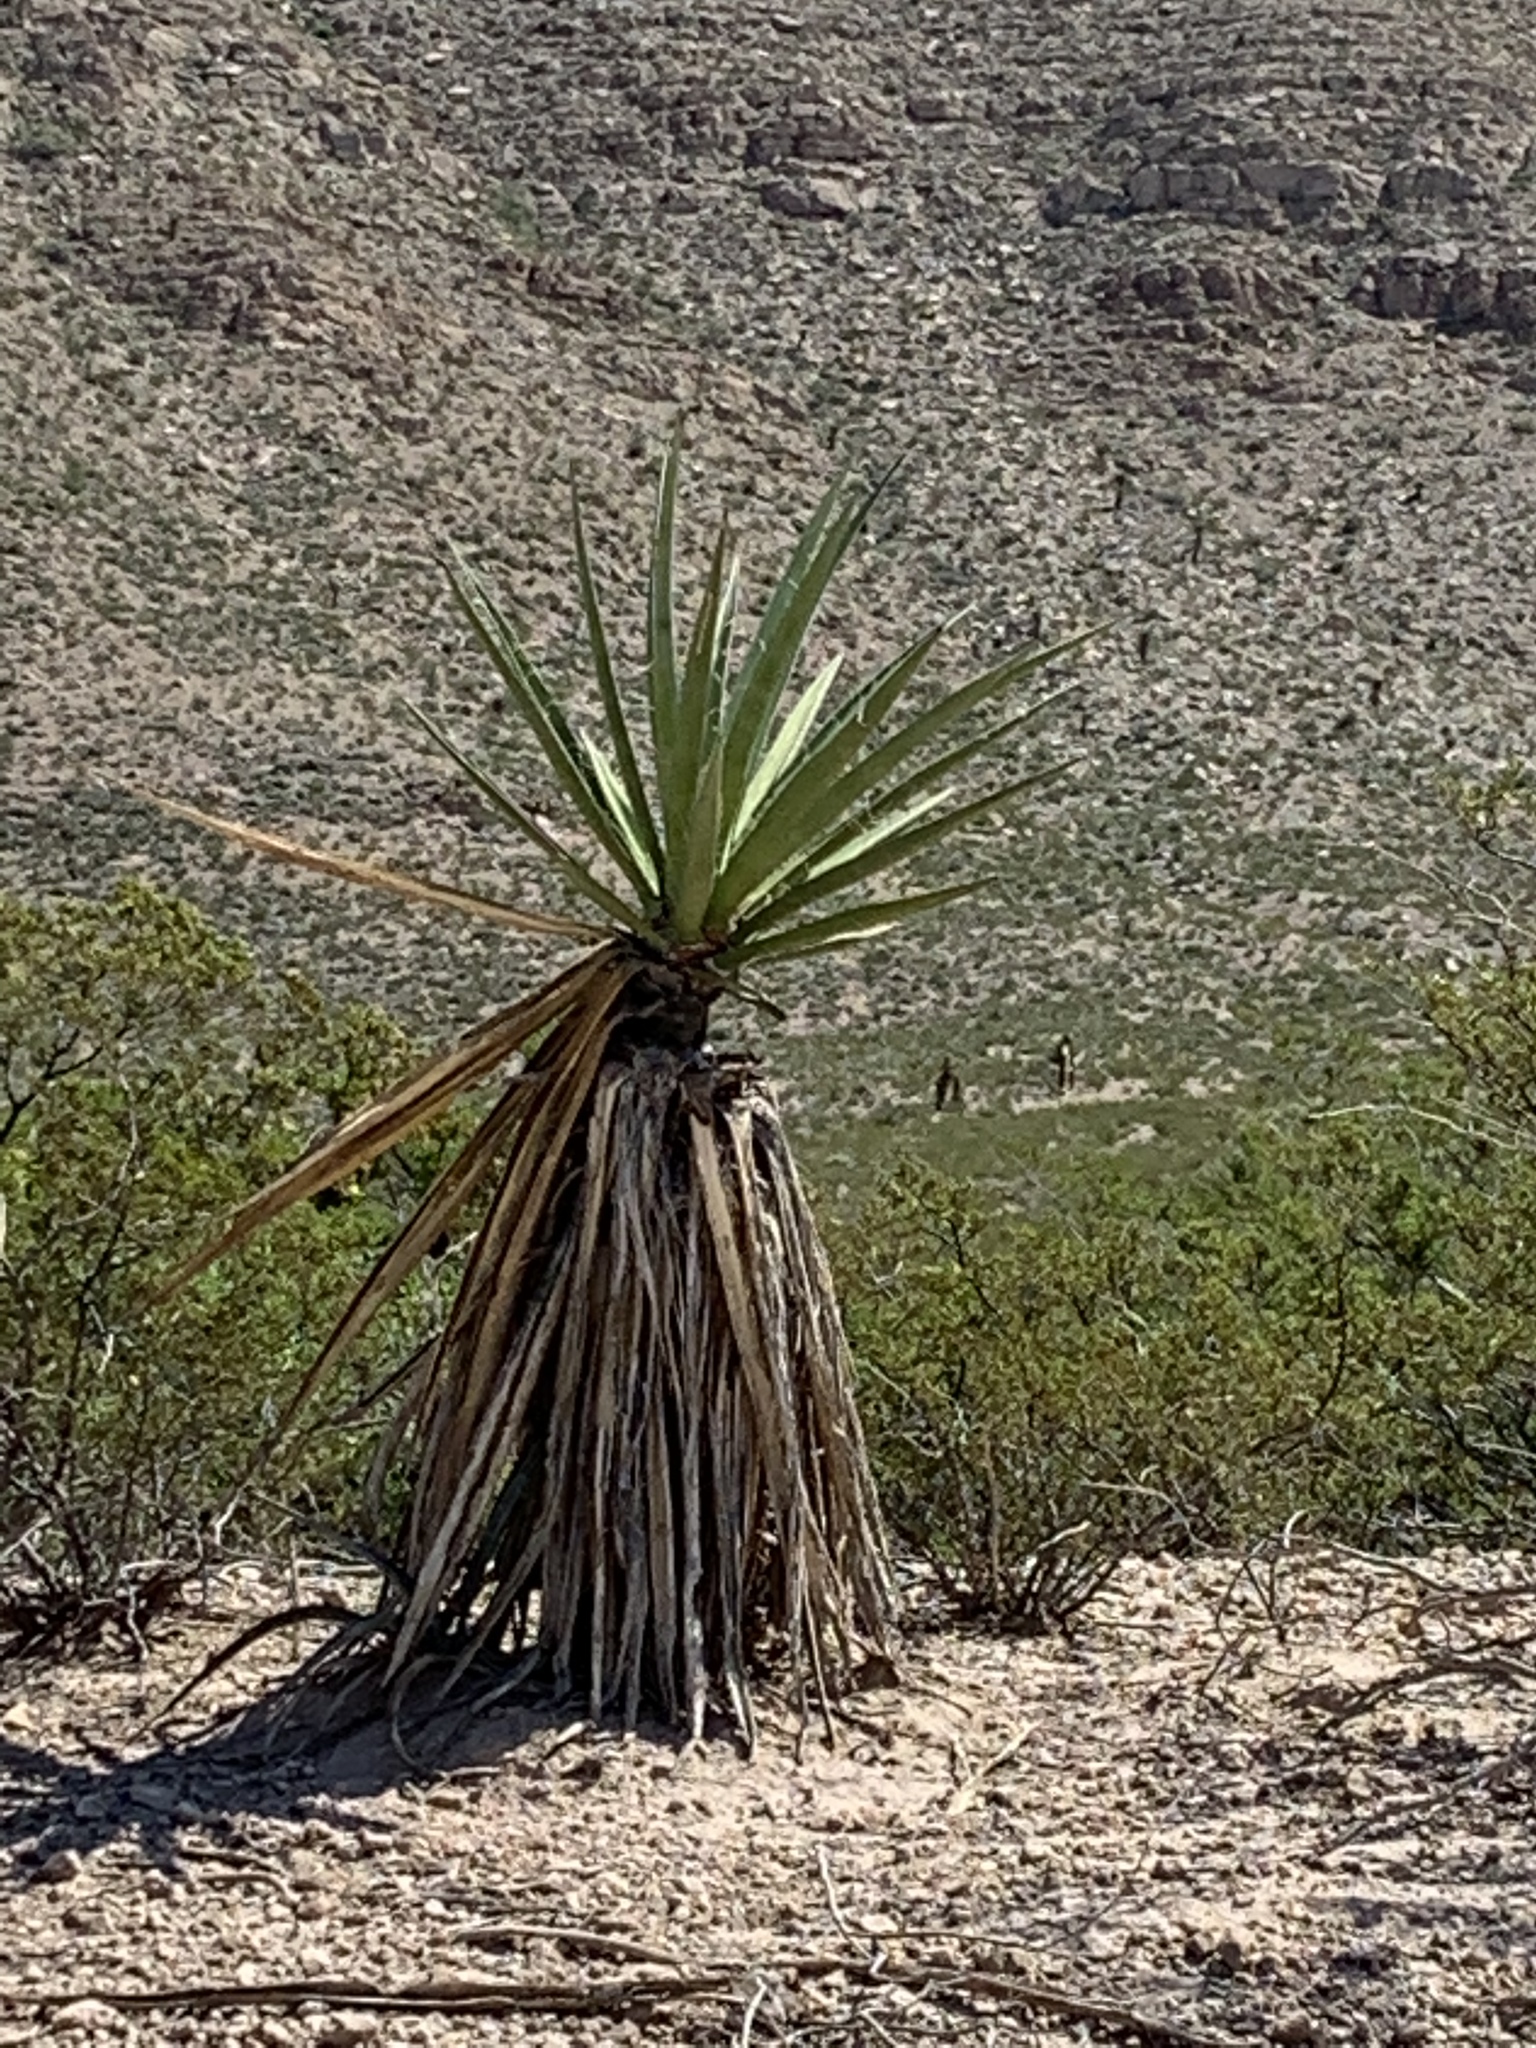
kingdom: Plantae
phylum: Tracheophyta
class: Liliopsida
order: Asparagales
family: Asparagaceae
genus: Yucca
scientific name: Yucca treculiana
